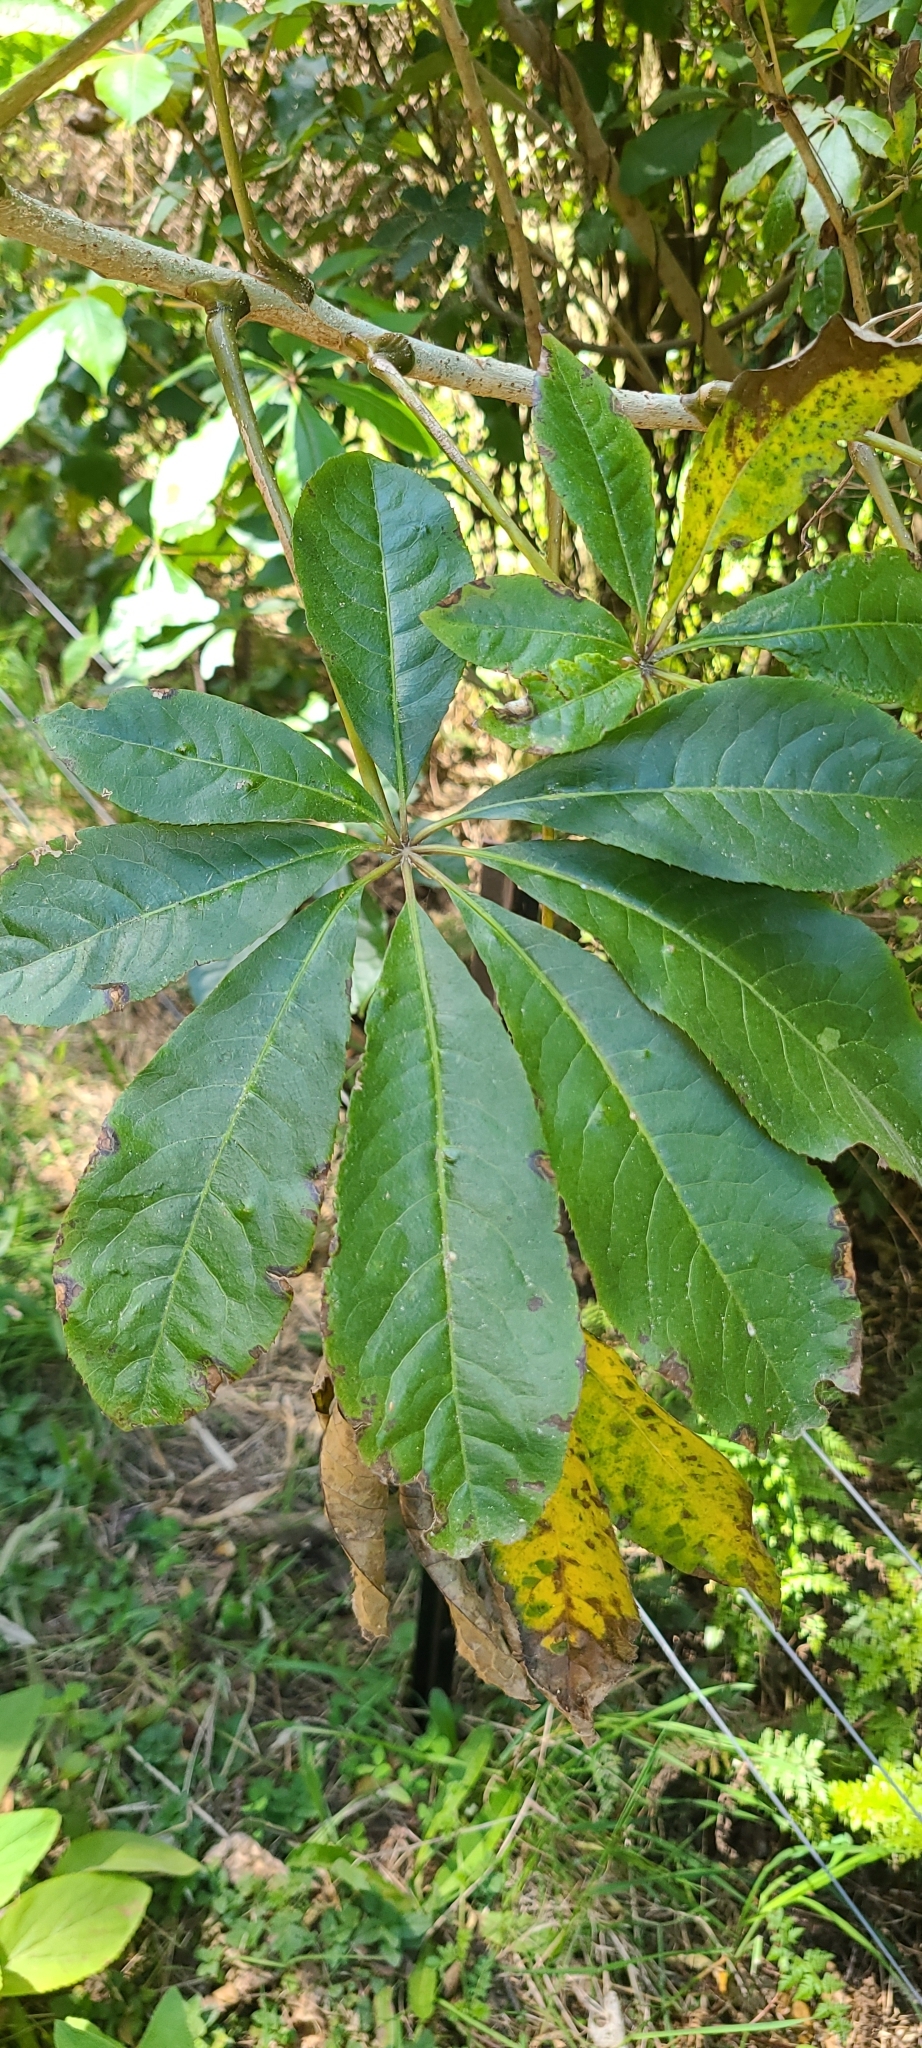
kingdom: Plantae
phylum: Tracheophyta
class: Magnoliopsida
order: Apiales
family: Araliaceae
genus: Schefflera
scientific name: Schefflera digitata
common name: Pate
